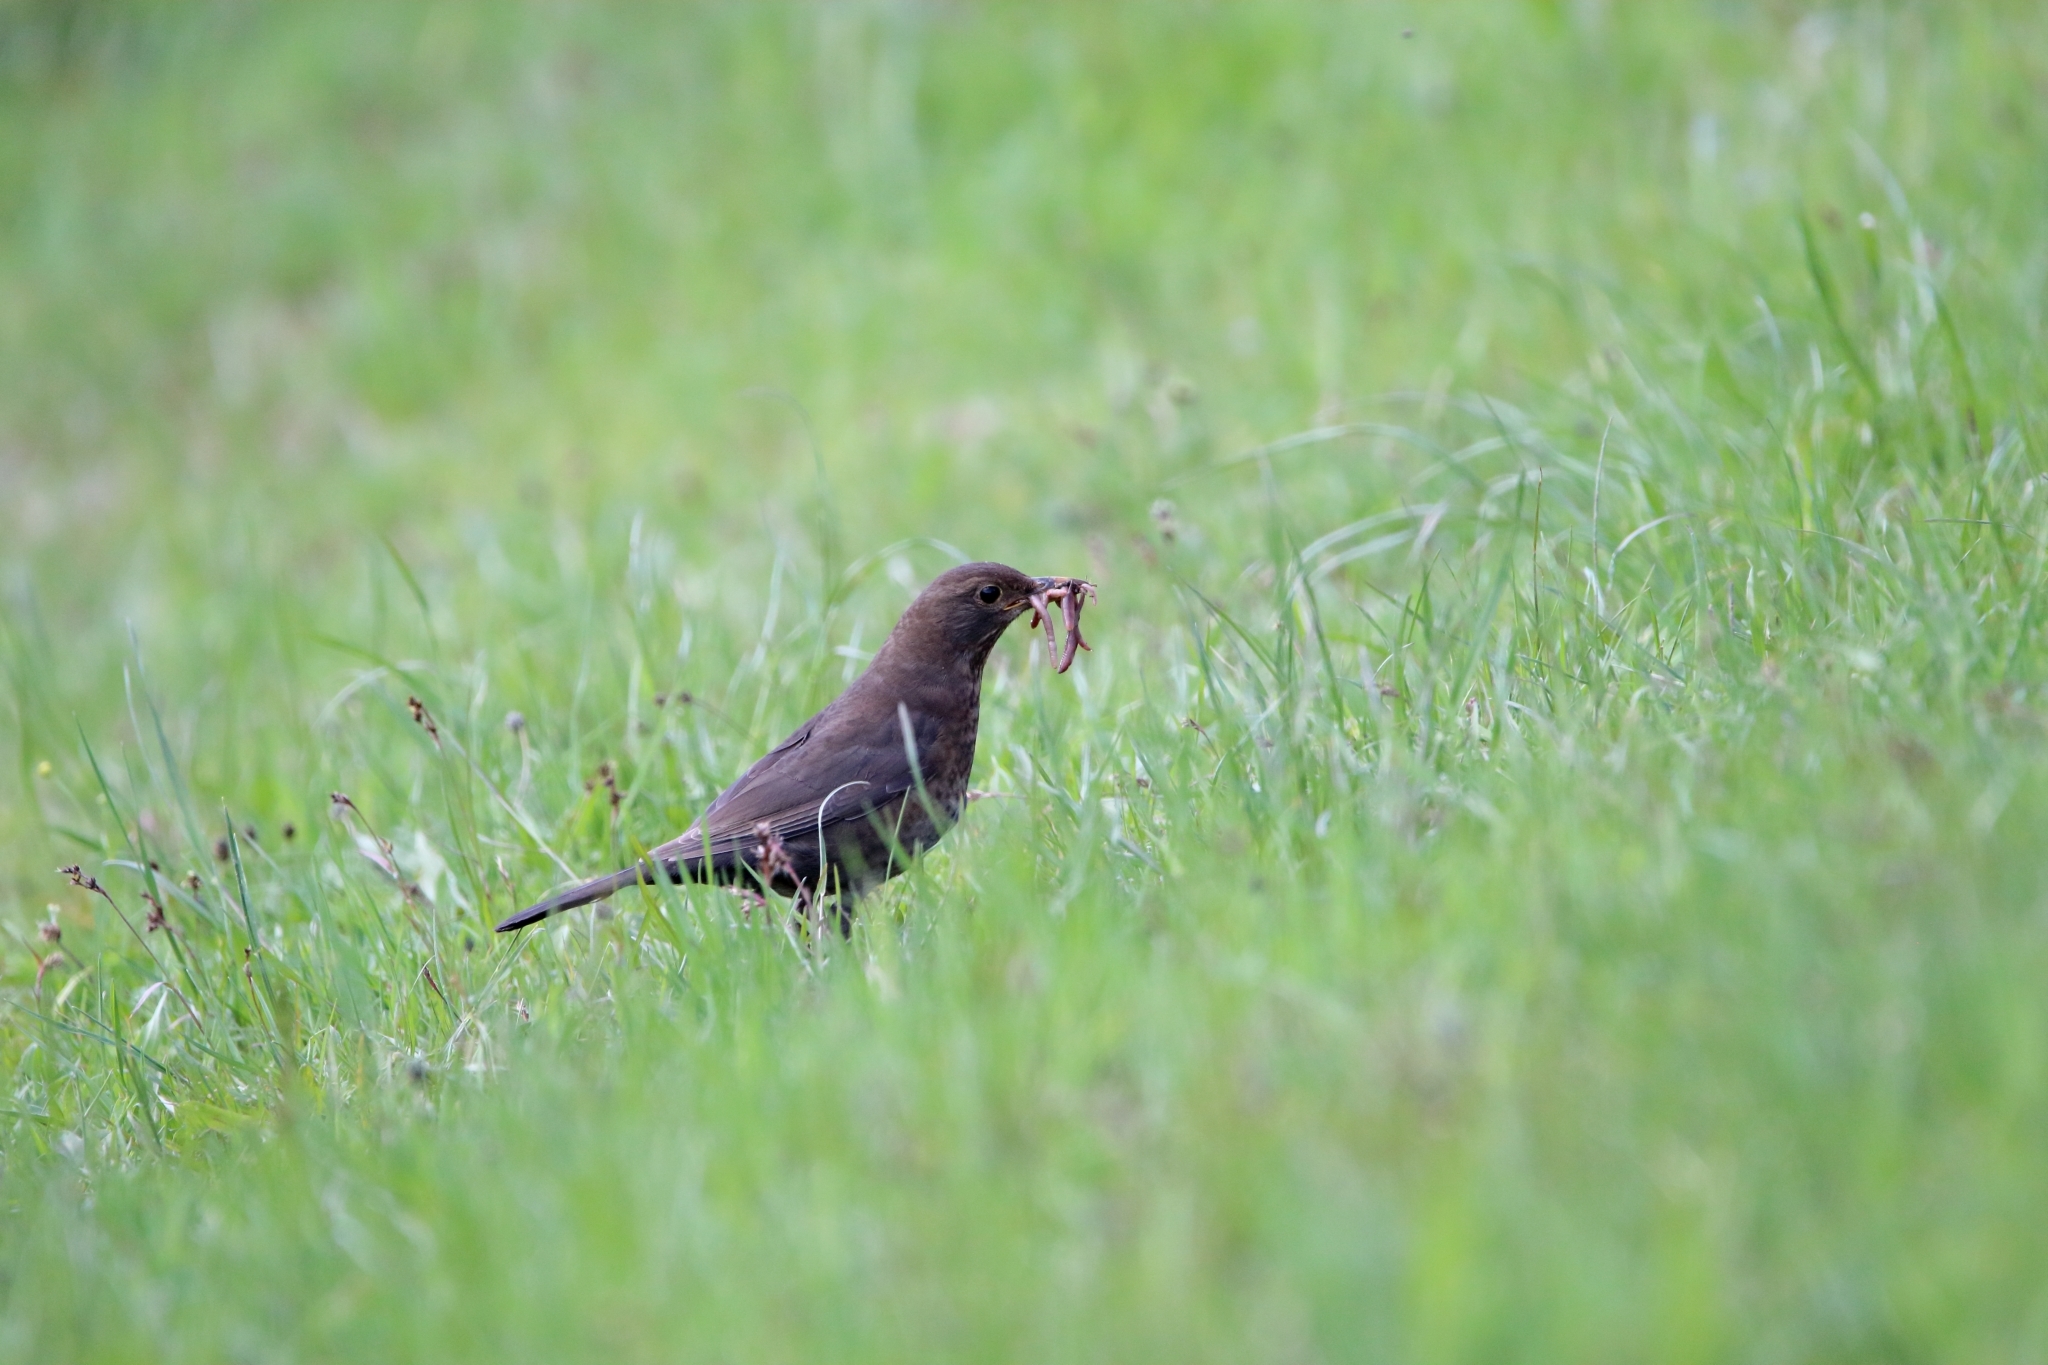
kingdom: Animalia
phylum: Chordata
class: Aves
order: Passeriformes
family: Turdidae
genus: Turdus
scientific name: Turdus merula
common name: Common blackbird
